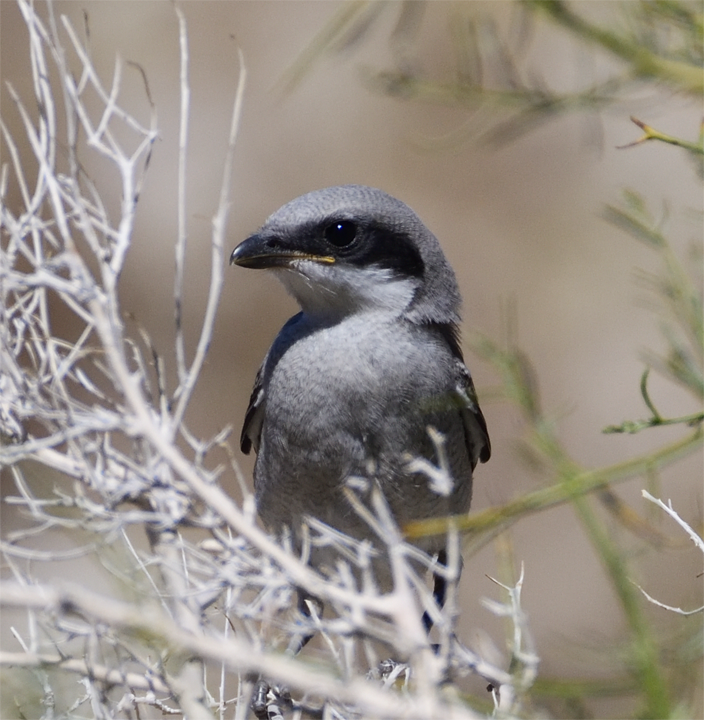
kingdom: Animalia
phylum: Chordata
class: Aves
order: Passeriformes
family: Laniidae
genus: Lanius
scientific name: Lanius ludovicianus
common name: Loggerhead shrike
